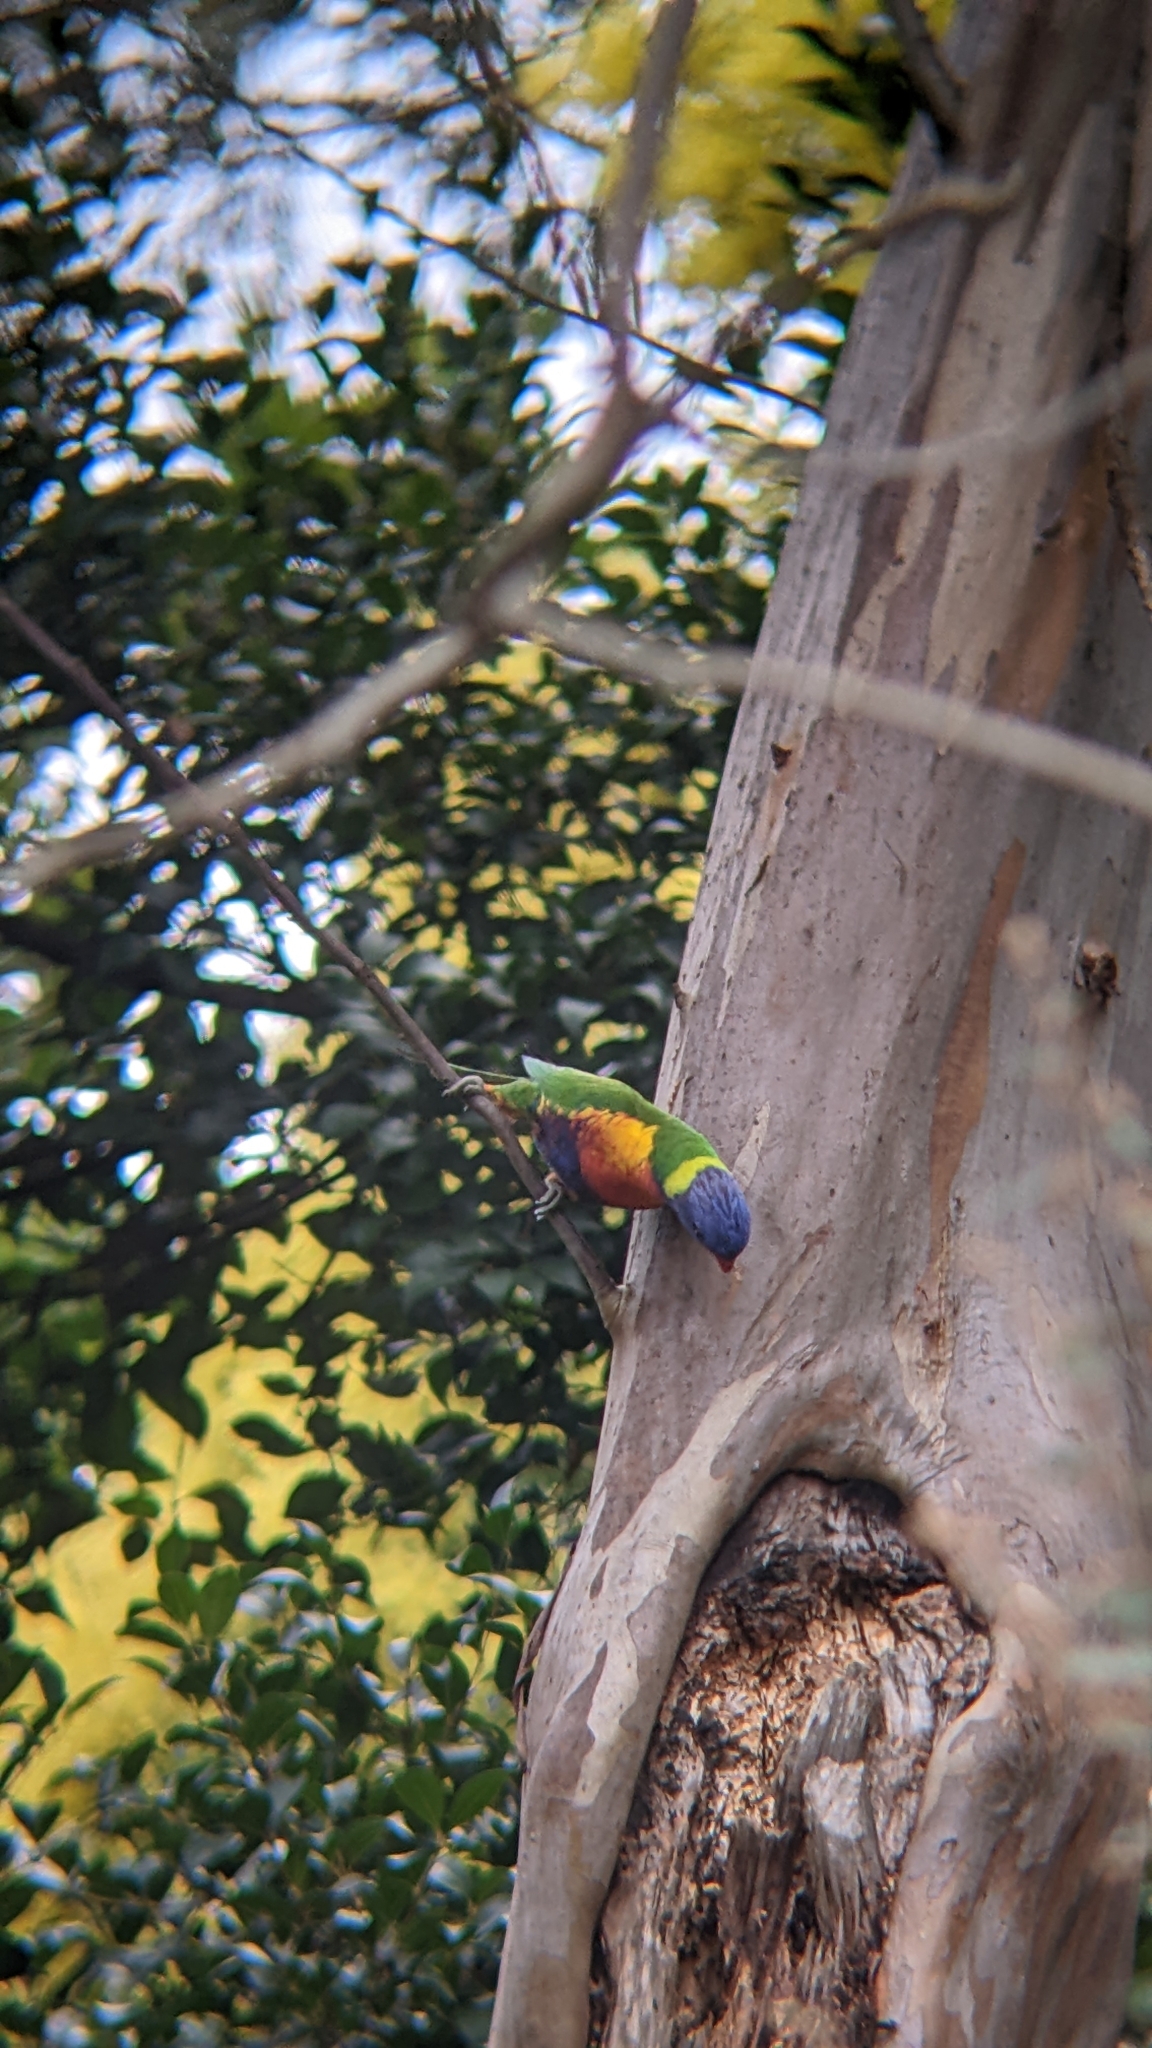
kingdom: Animalia
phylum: Chordata
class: Aves
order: Psittaciformes
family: Psittacidae
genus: Trichoglossus
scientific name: Trichoglossus haematodus
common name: Coconut lorikeet
